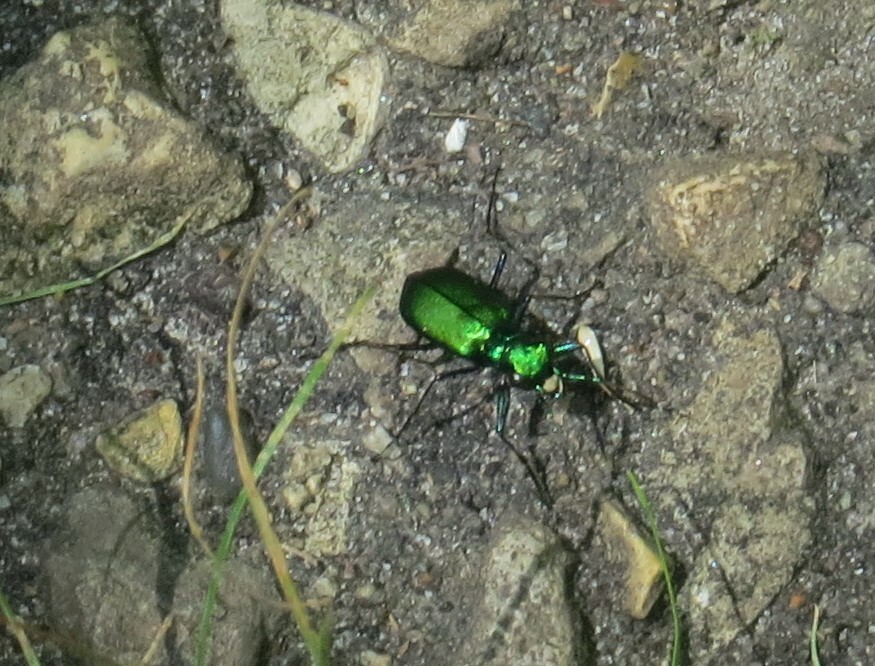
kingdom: Animalia
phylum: Arthropoda
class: Insecta
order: Coleoptera
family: Carabidae
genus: Cicindela
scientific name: Cicindela sexguttata
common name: Six-spotted tiger beetle
